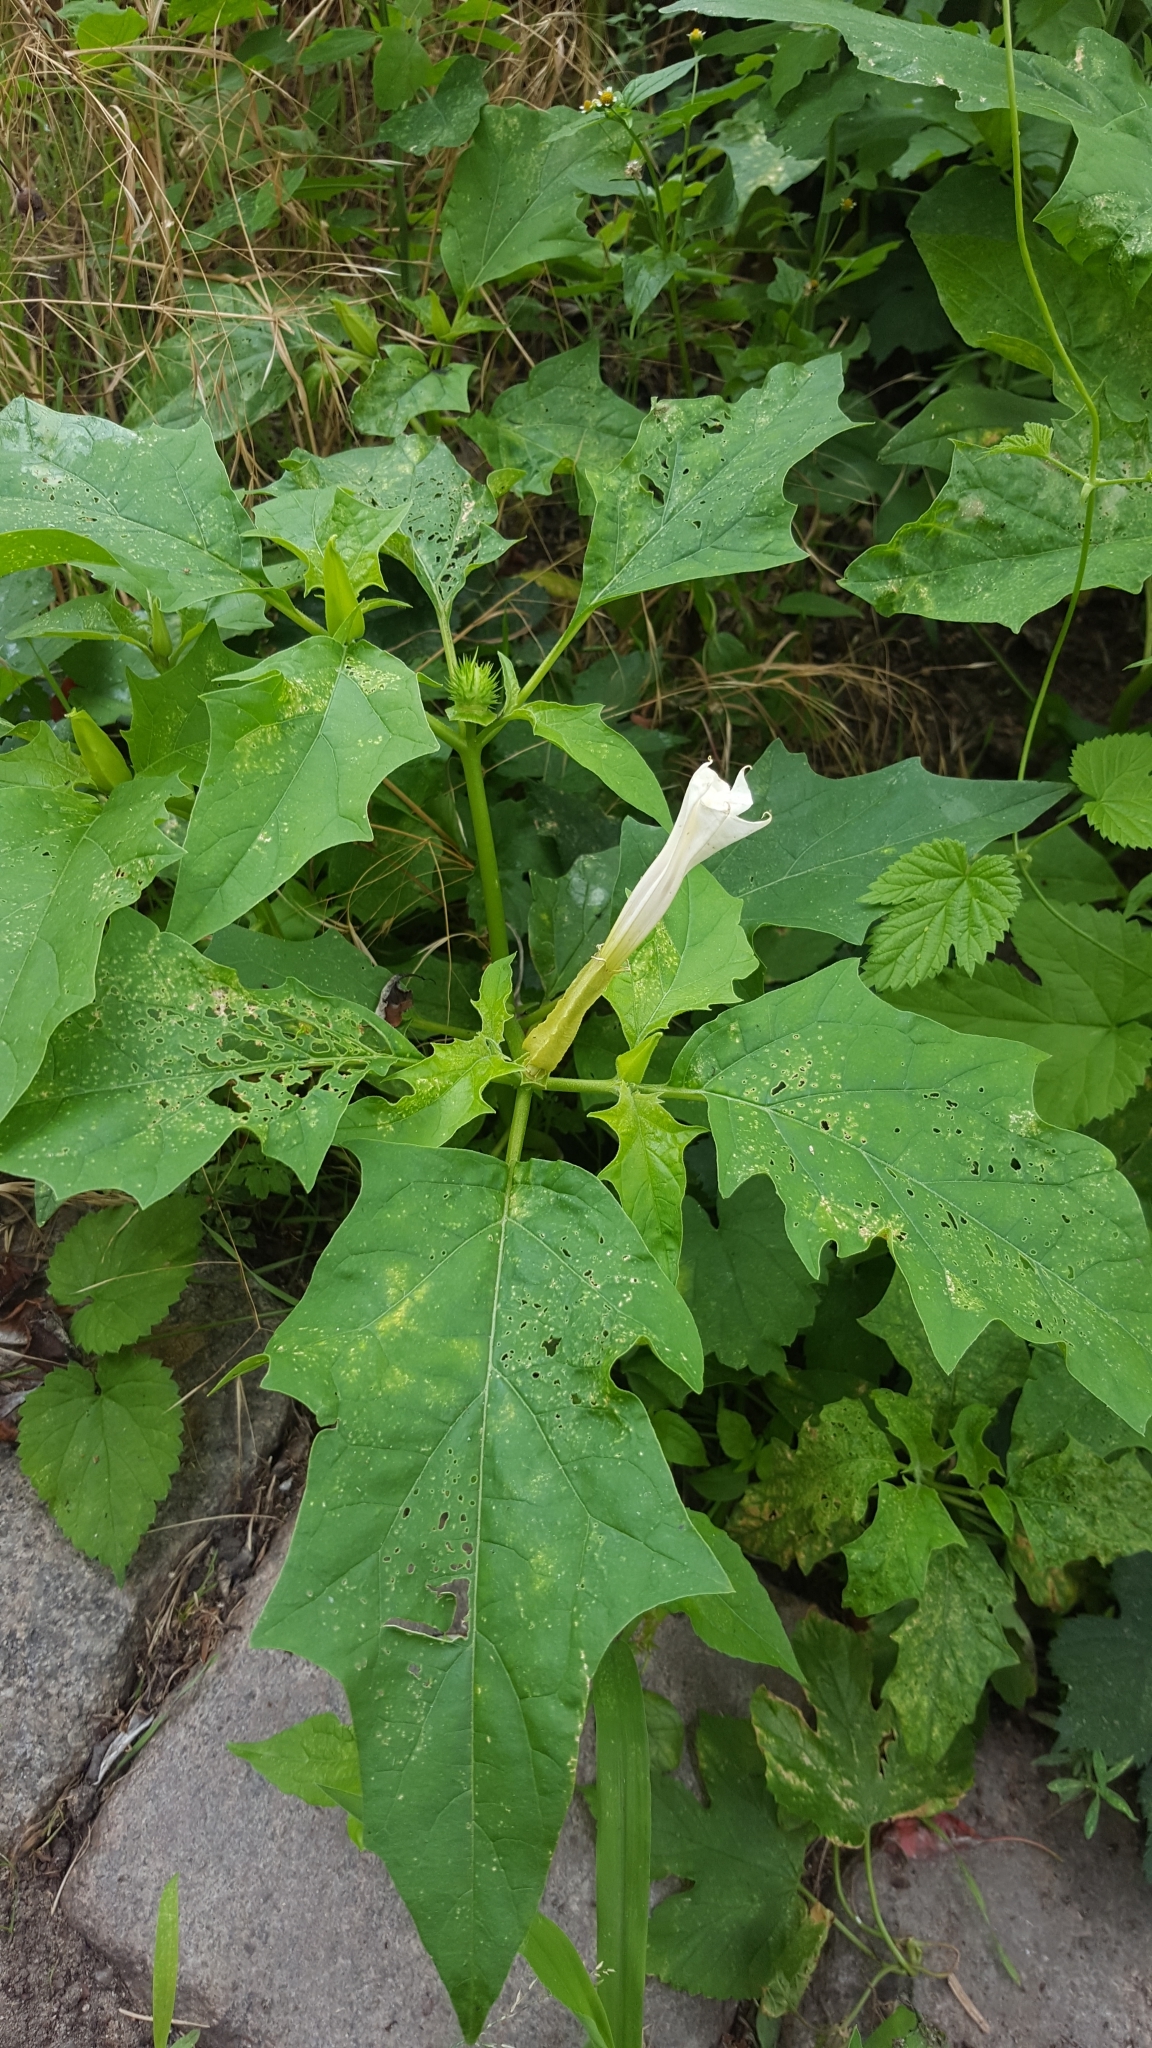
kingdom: Plantae
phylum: Tracheophyta
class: Magnoliopsida
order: Solanales
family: Solanaceae
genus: Datura
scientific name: Datura stramonium
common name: Thorn-apple
